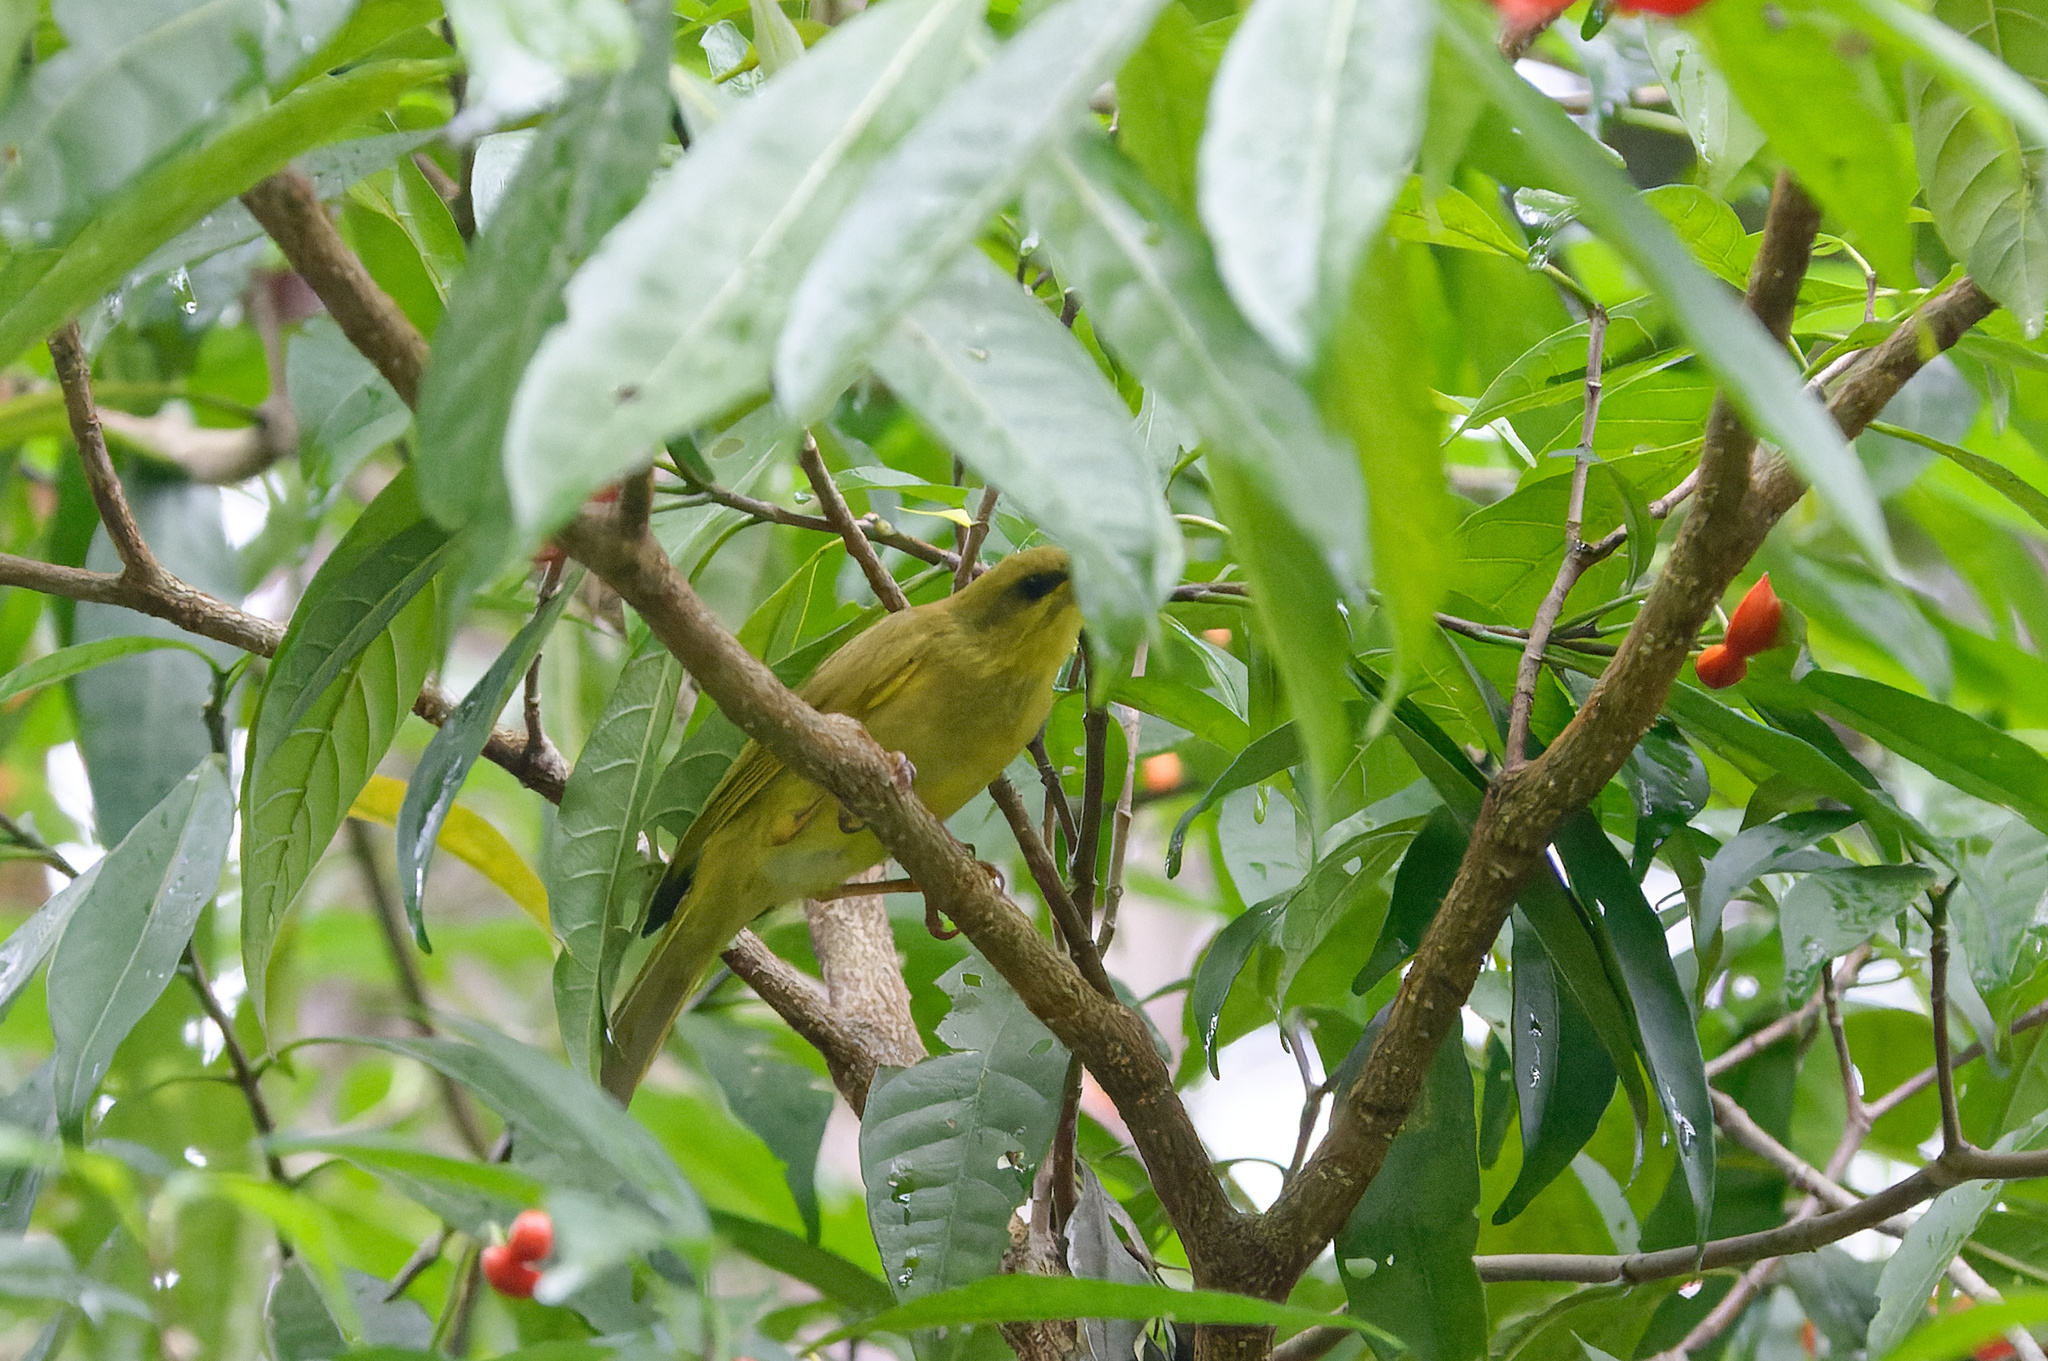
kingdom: Animalia
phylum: Chordata
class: Aves
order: Passeriformes
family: Meliphagidae
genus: Stomiopera
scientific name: Stomiopera flava
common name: Yellow honeyeater
